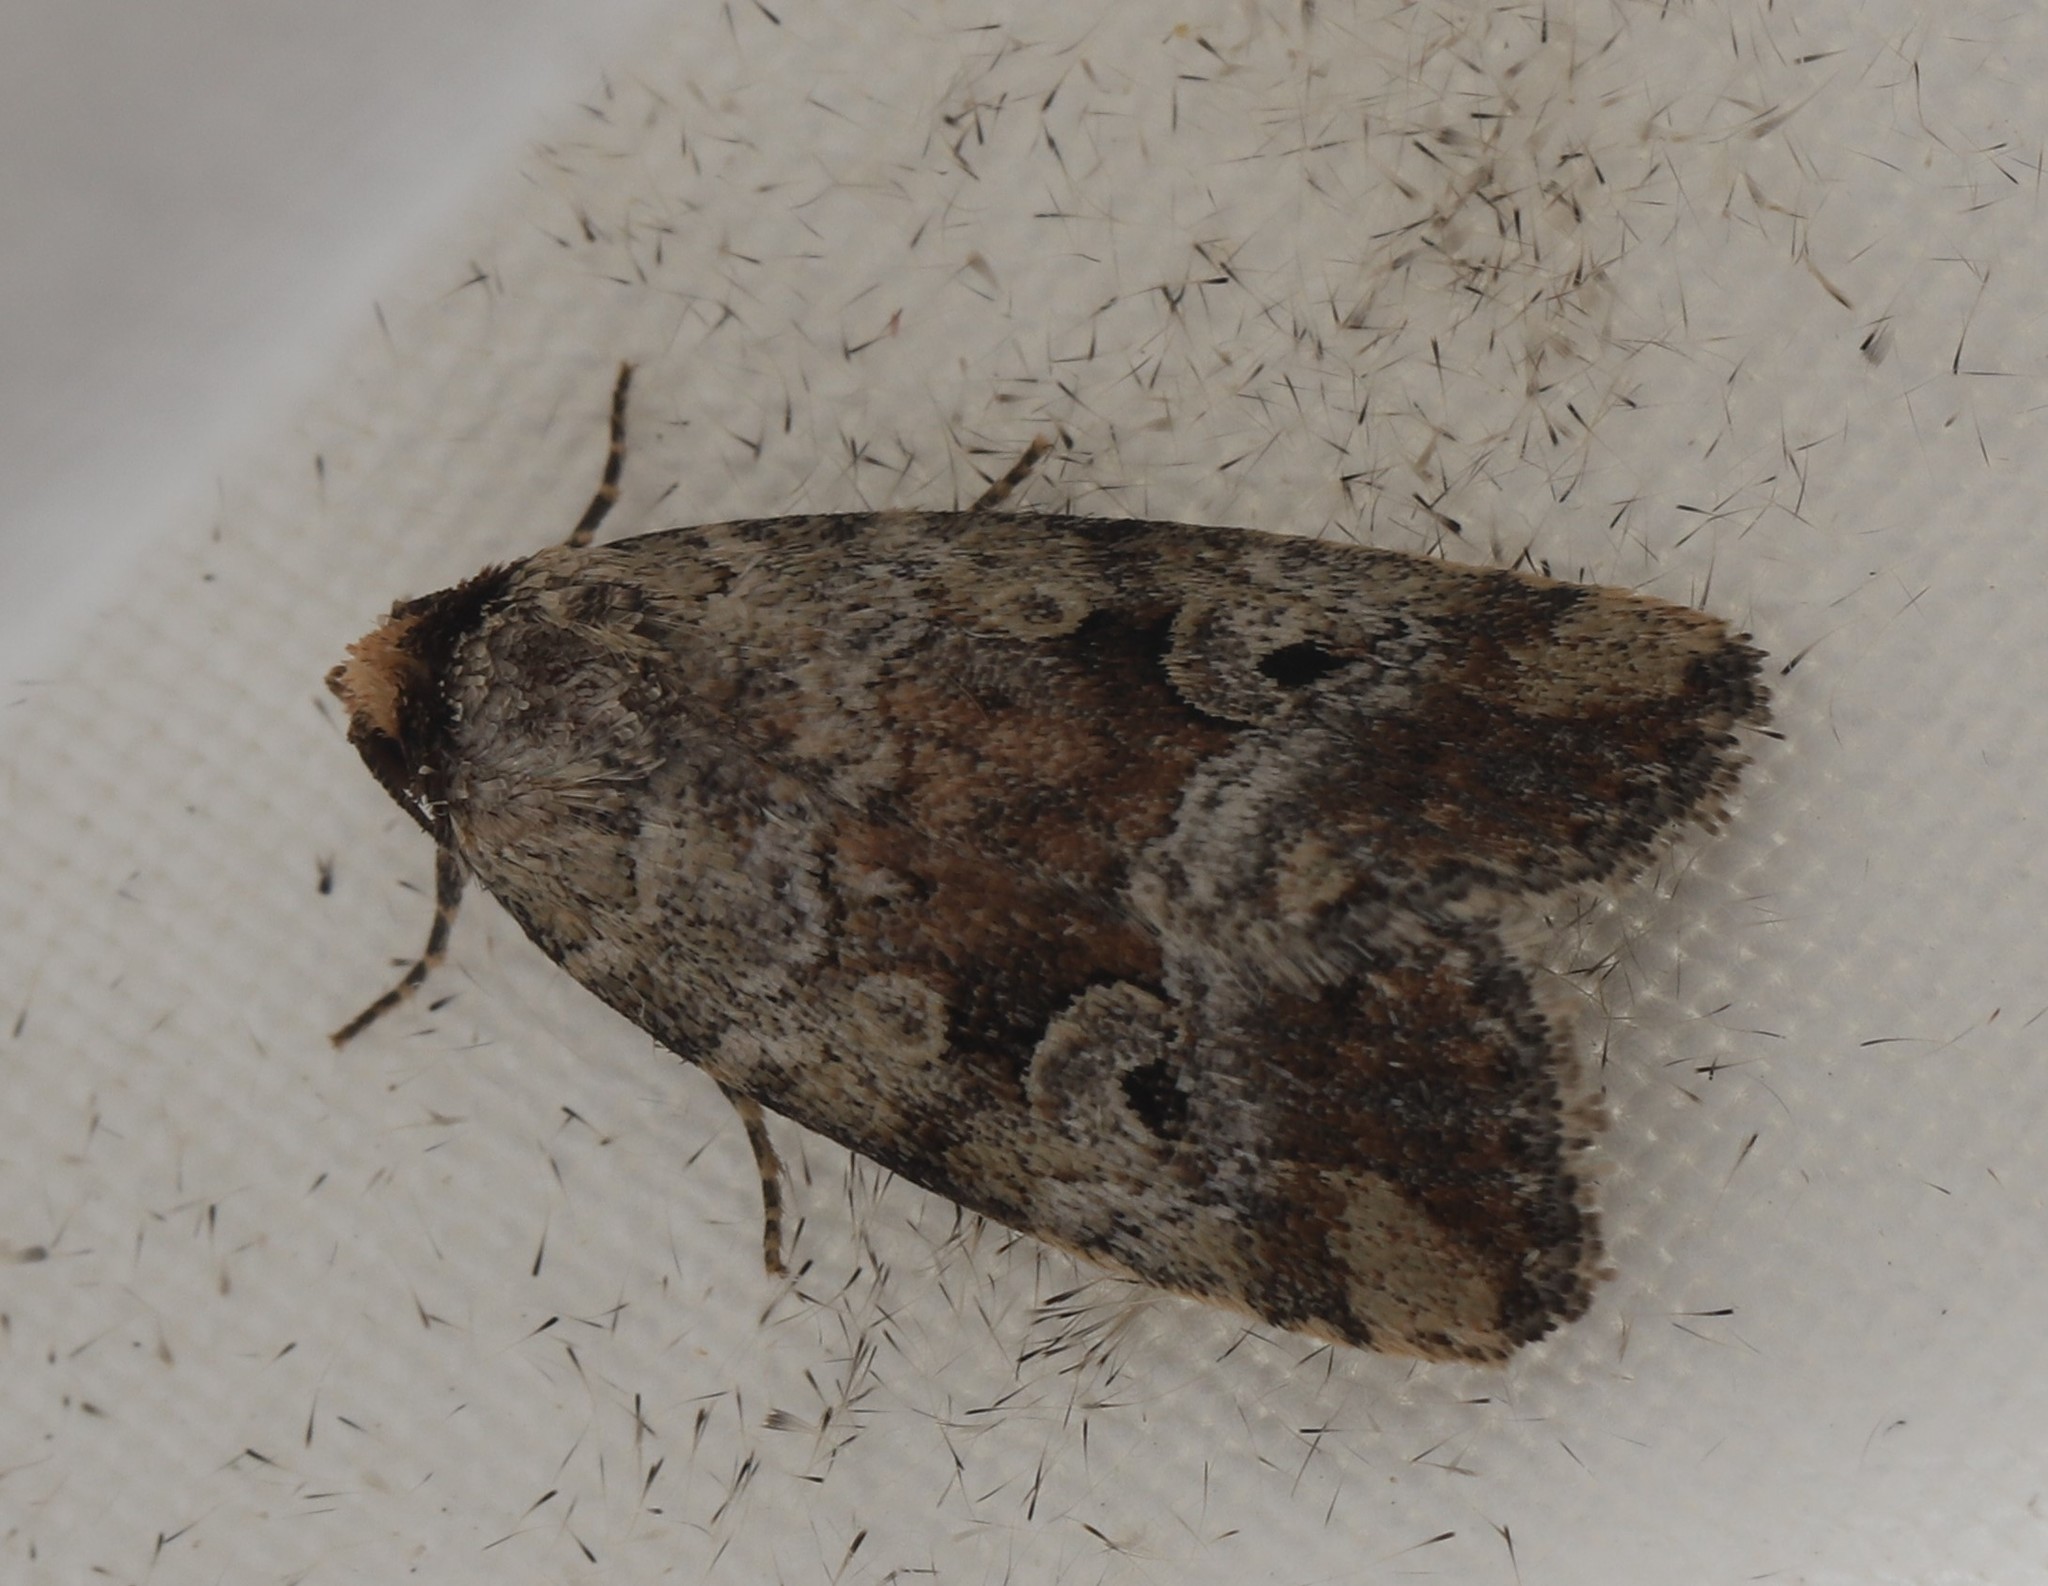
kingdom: Animalia
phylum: Arthropoda
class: Insecta
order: Lepidoptera
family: Noctuidae
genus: Elaphria
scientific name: Elaphria alapallida
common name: Pale-winged midget
